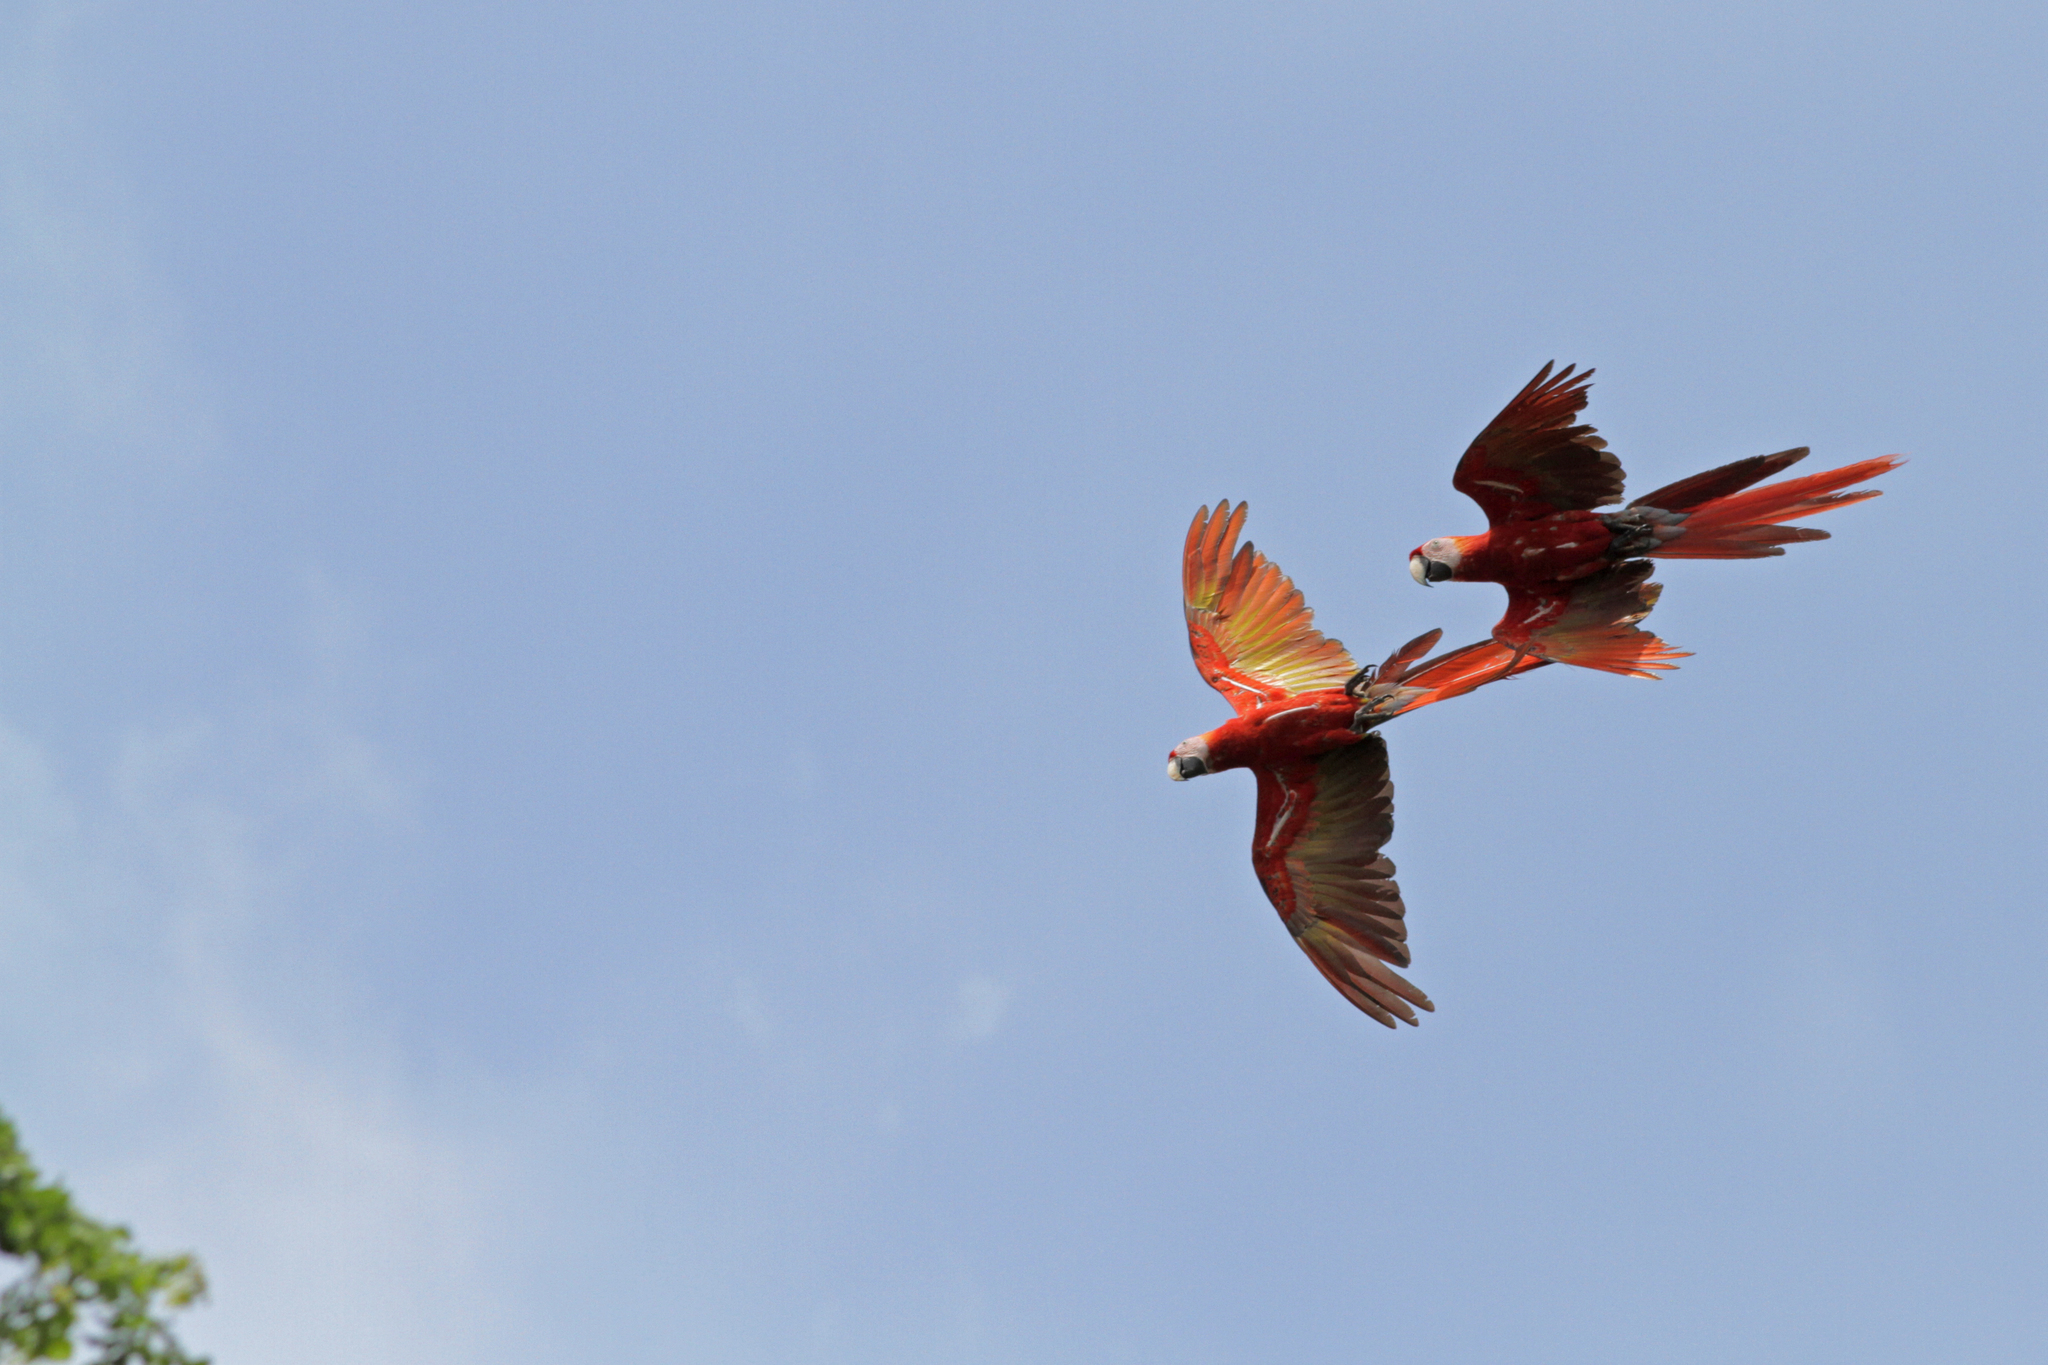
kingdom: Animalia
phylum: Chordata
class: Aves
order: Psittaciformes
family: Psittacidae
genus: Ara
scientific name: Ara macao
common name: Scarlet macaw
